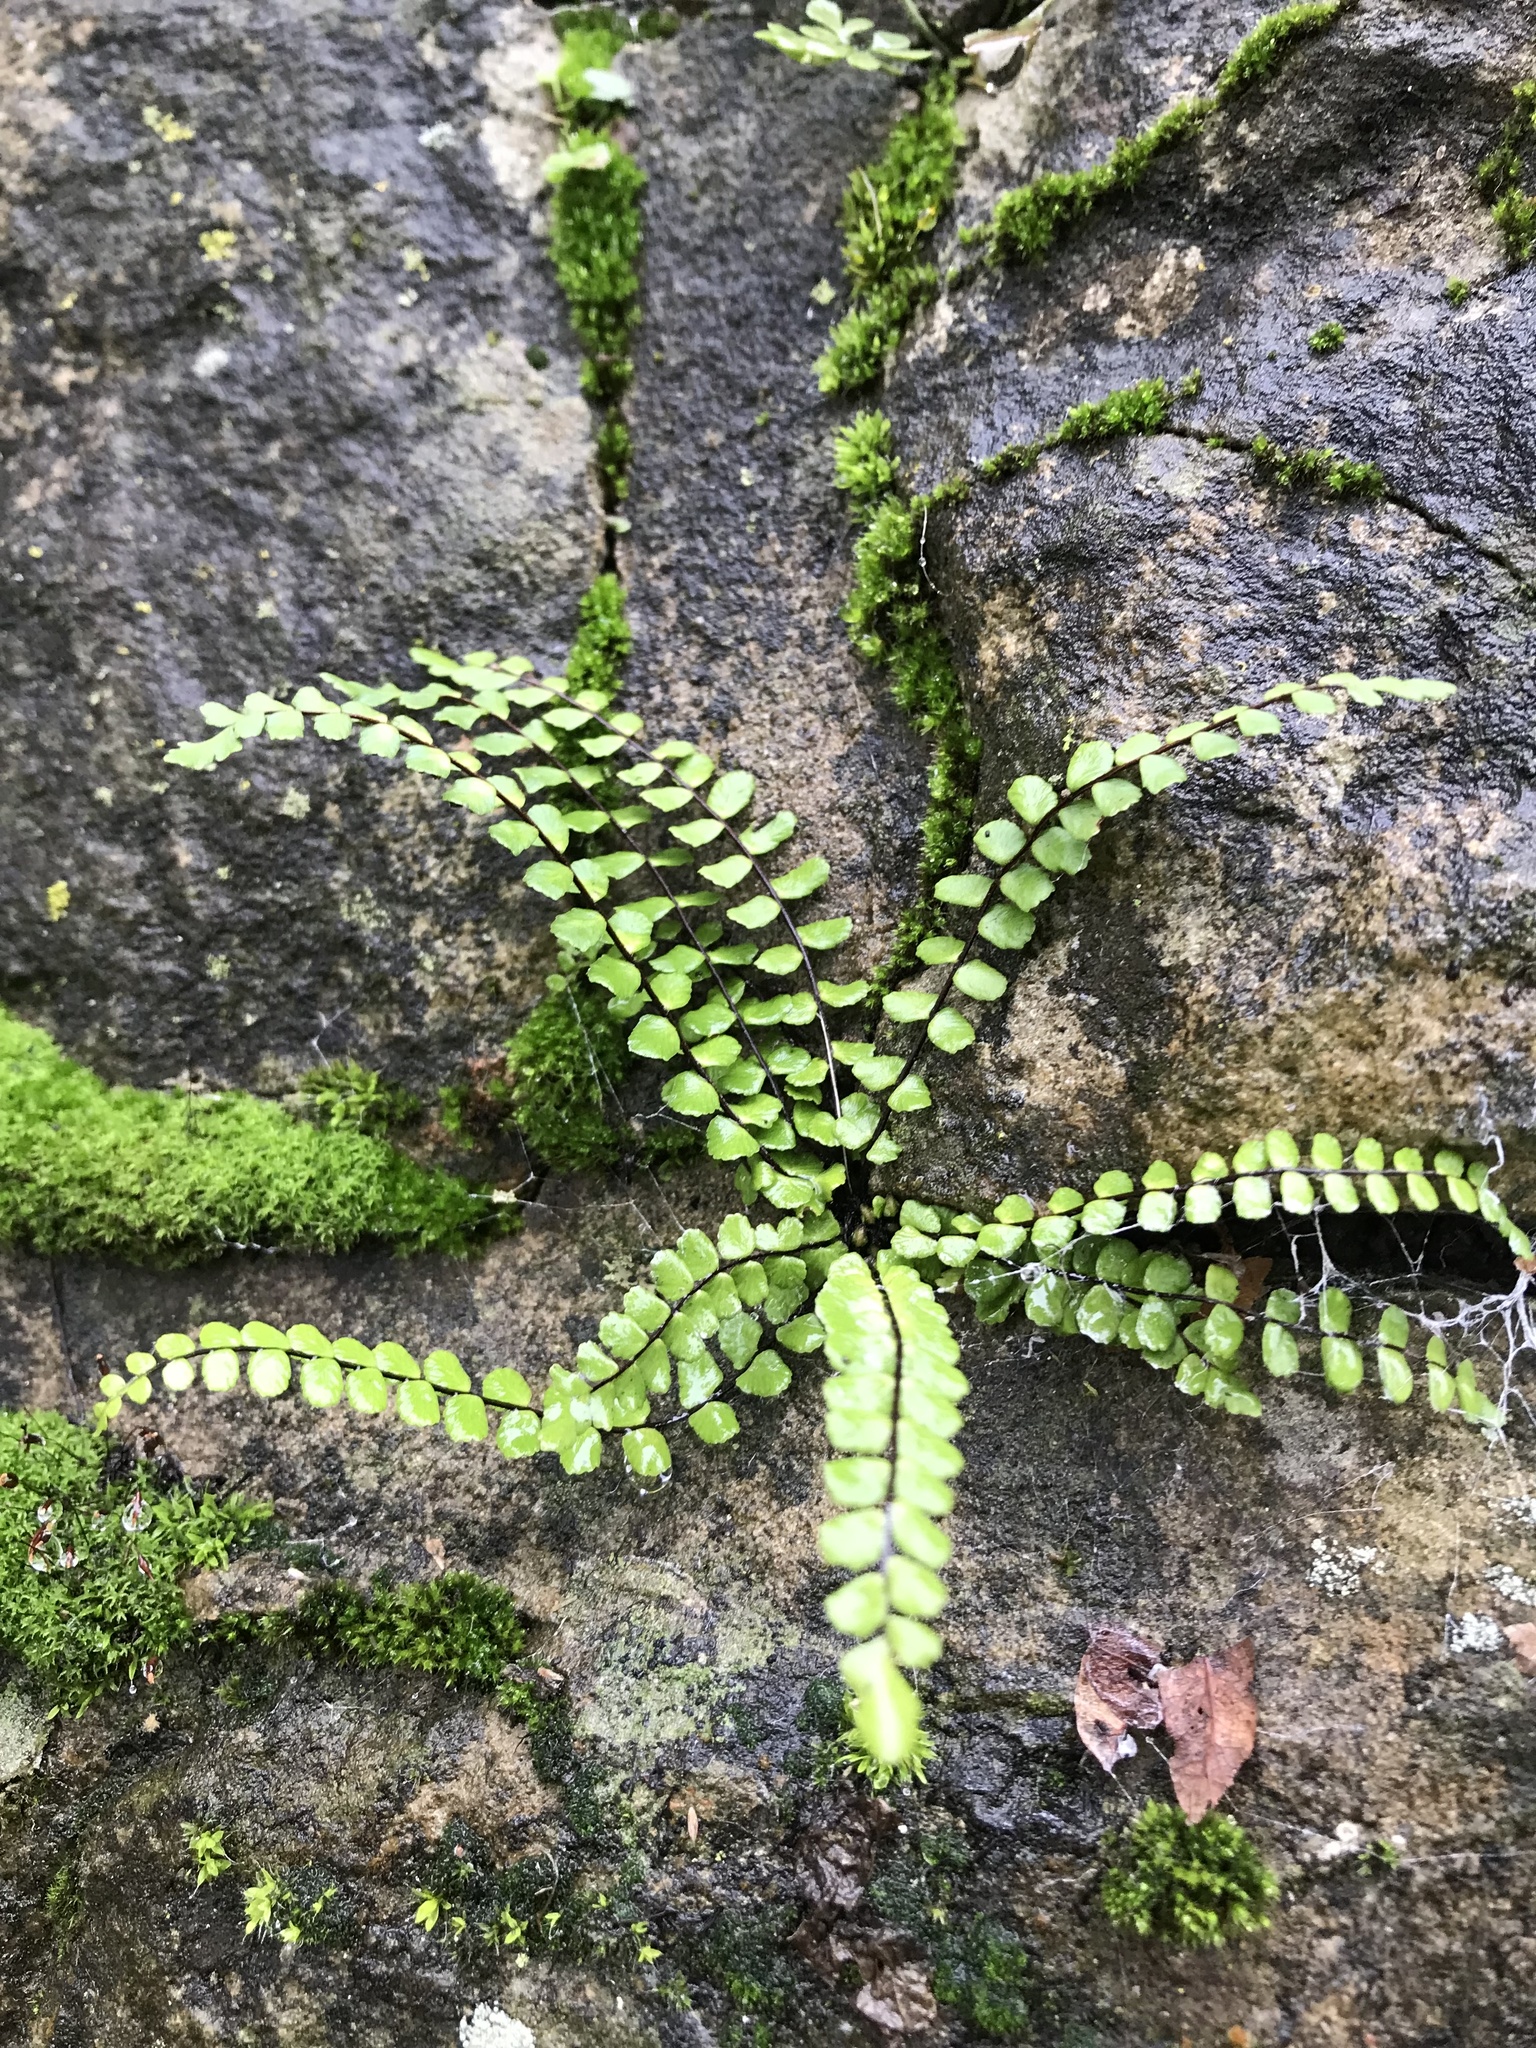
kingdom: Plantae
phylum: Tracheophyta
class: Polypodiopsida
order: Polypodiales
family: Aspleniaceae
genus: Asplenium
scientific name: Asplenium trichomanes
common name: Maidenhair spleenwort
